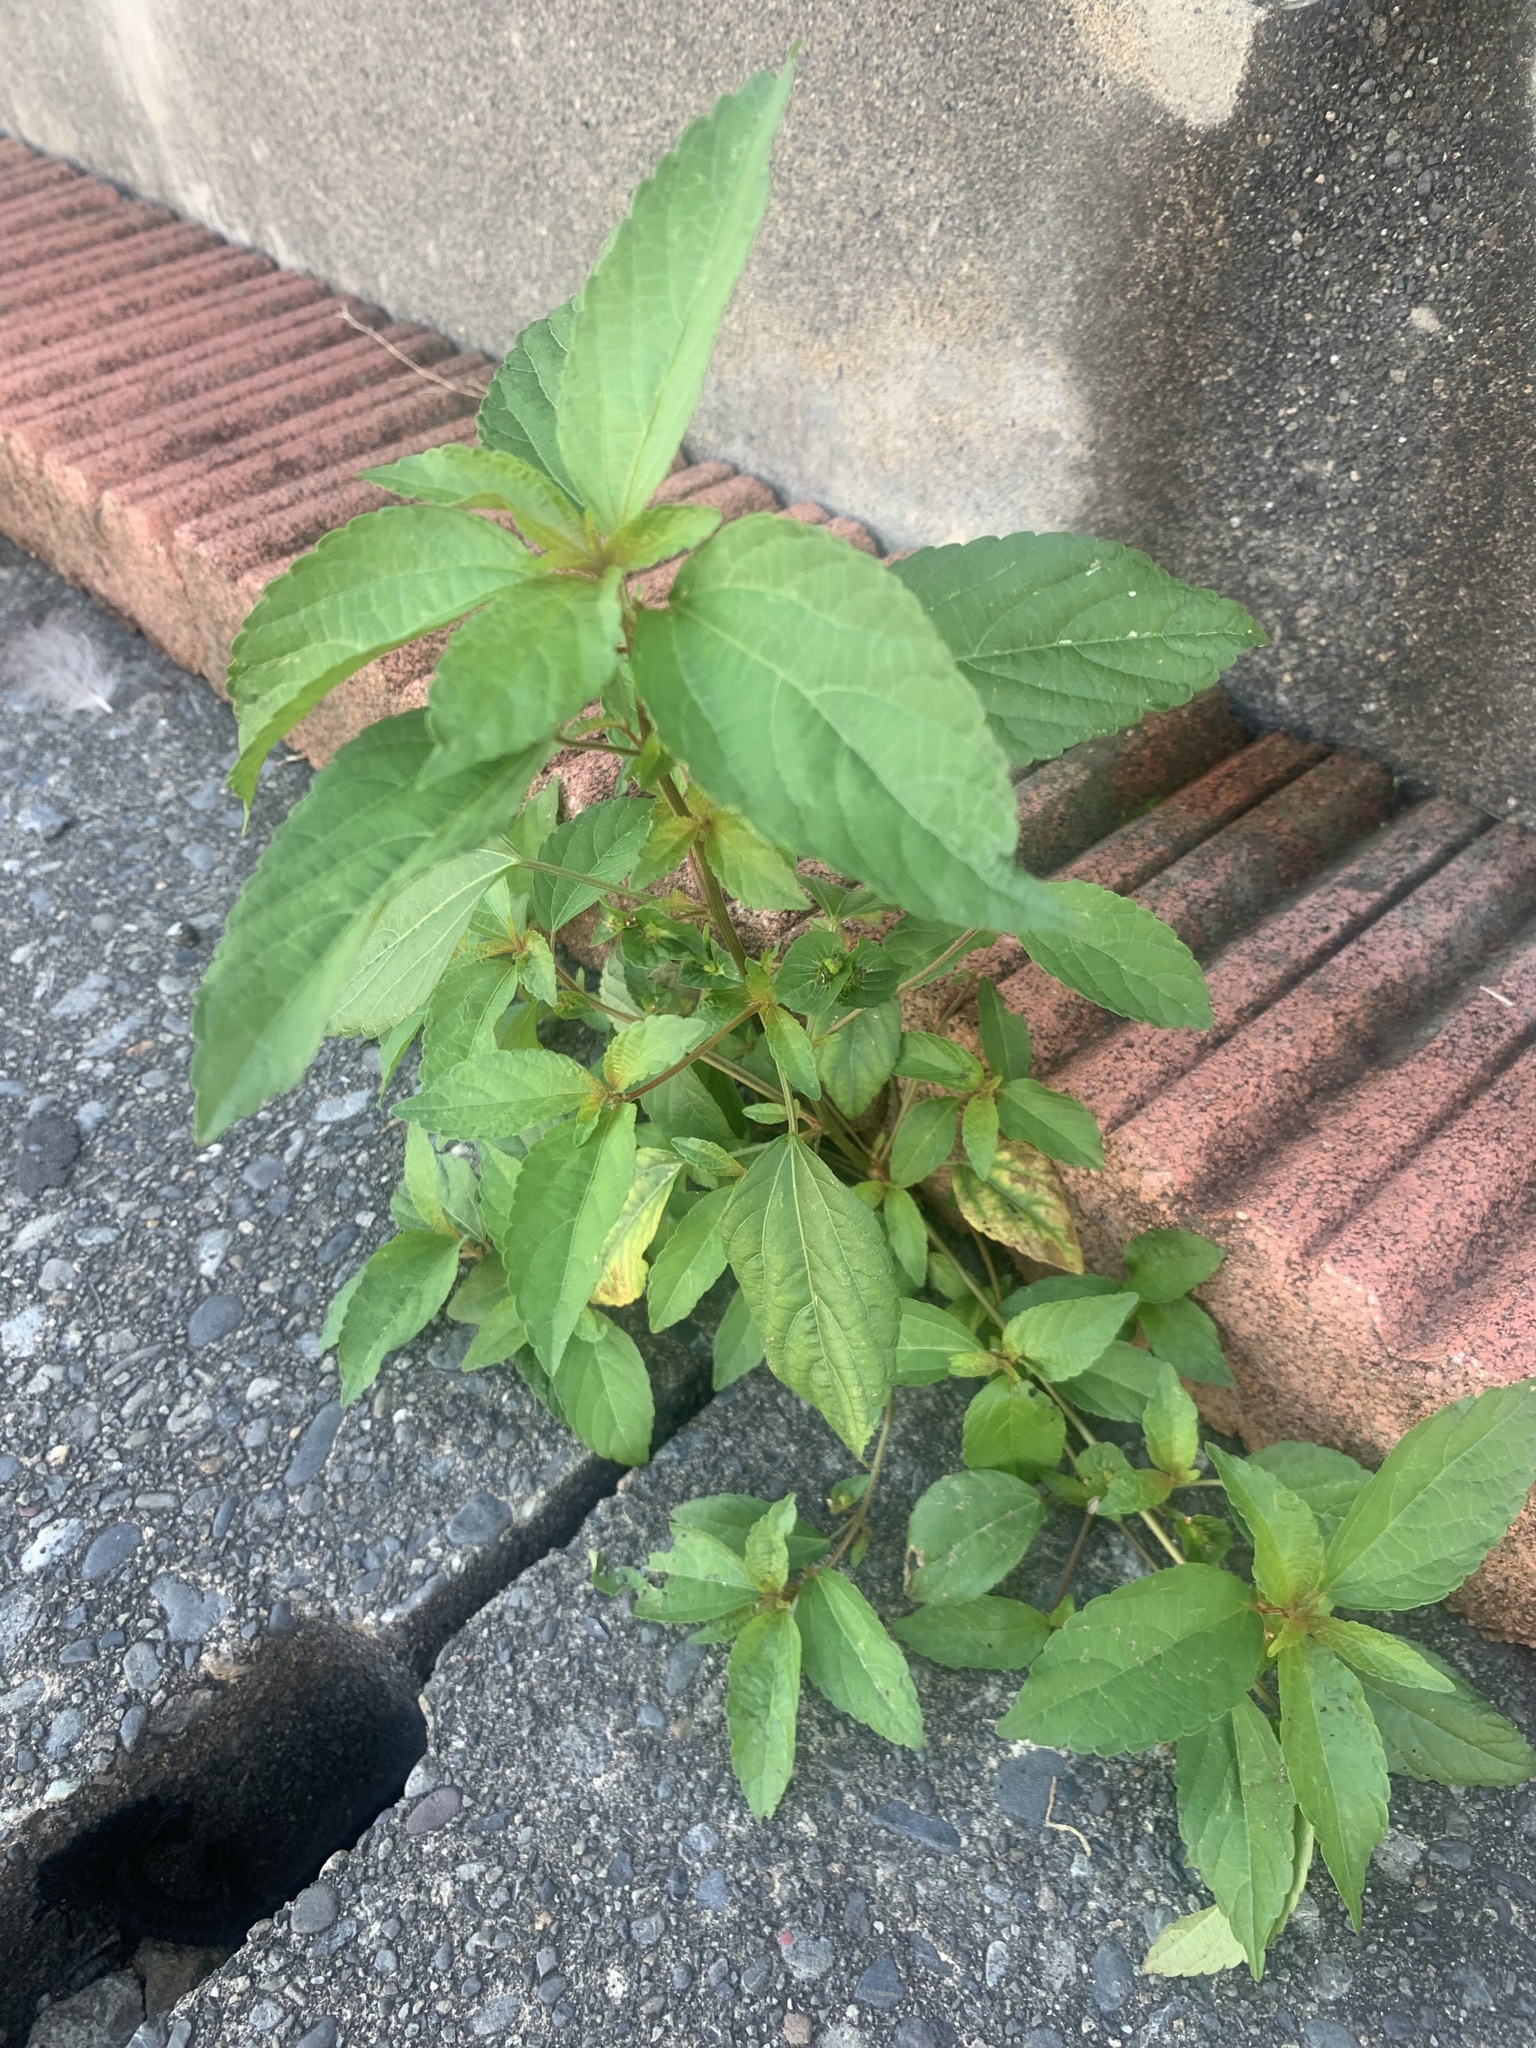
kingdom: Plantae
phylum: Tracheophyta
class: Magnoliopsida
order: Malpighiales
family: Euphorbiaceae
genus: Acalypha
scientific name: Acalypha australis
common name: Asian copperleaf
